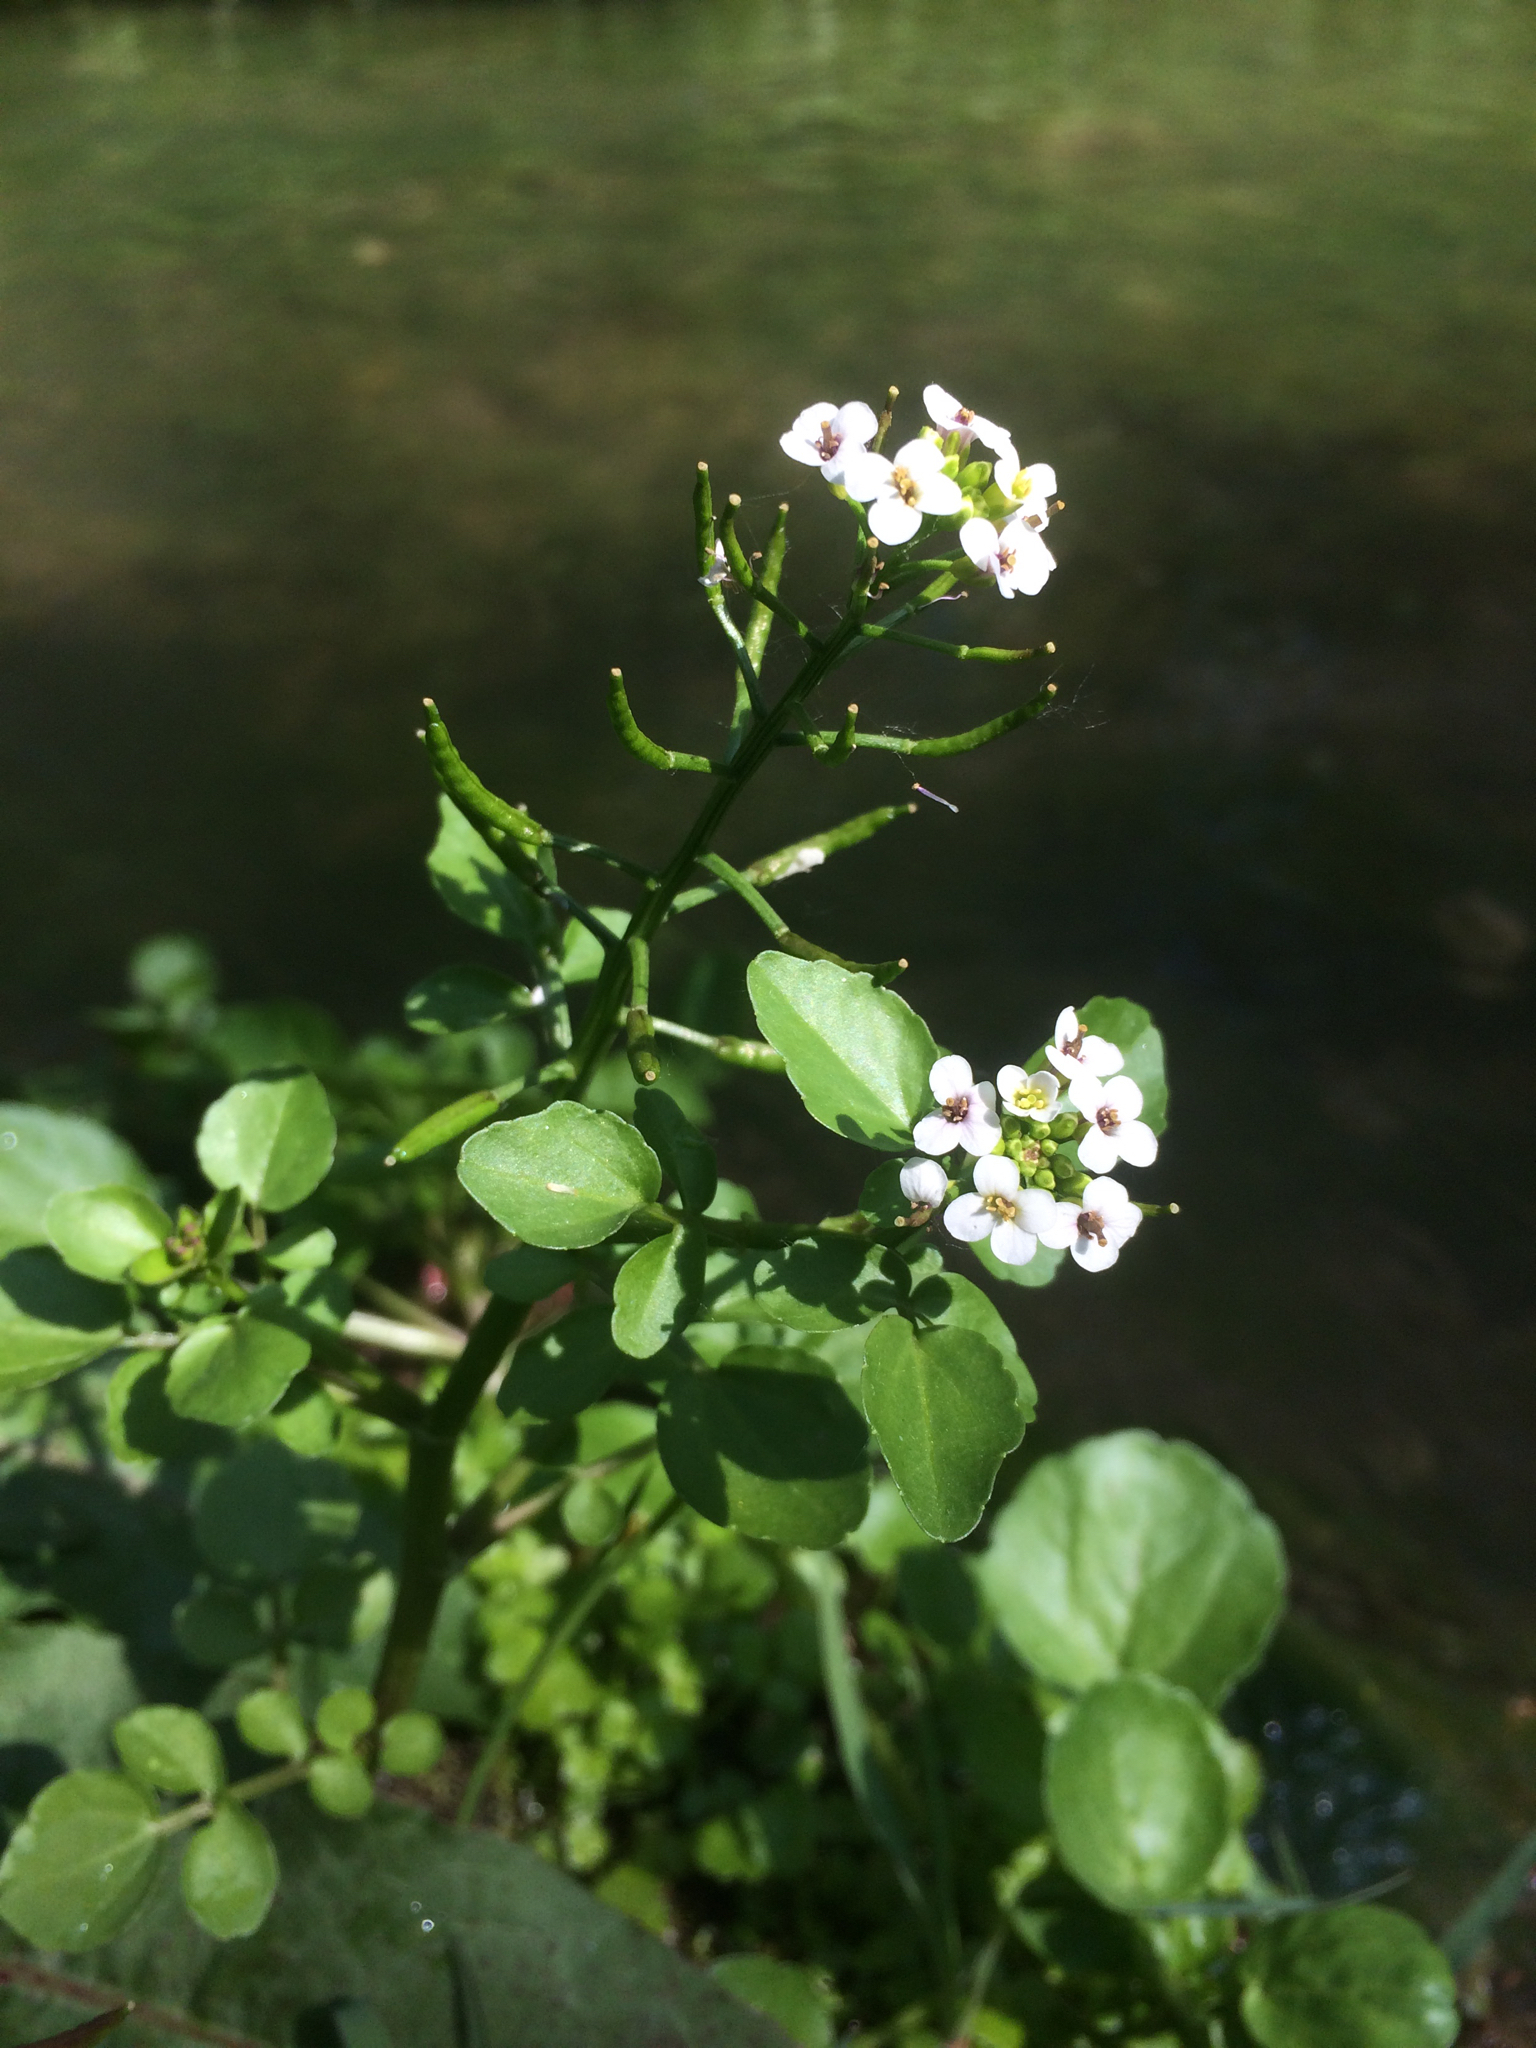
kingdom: Plantae
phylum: Tracheophyta
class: Magnoliopsida
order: Brassicales
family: Brassicaceae
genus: Nasturtium
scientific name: Nasturtium officinale
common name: Watercress
